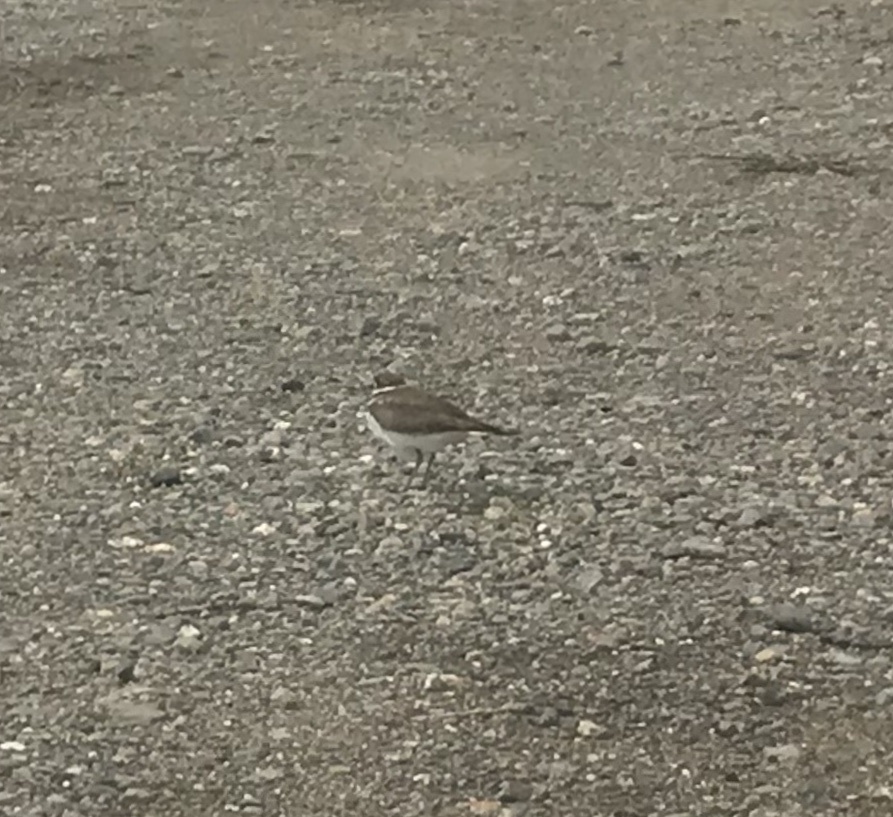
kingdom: Animalia
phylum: Chordata
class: Aves
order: Charadriiformes
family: Charadriidae
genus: Charadrius
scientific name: Charadrius vociferus
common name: Killdeer
